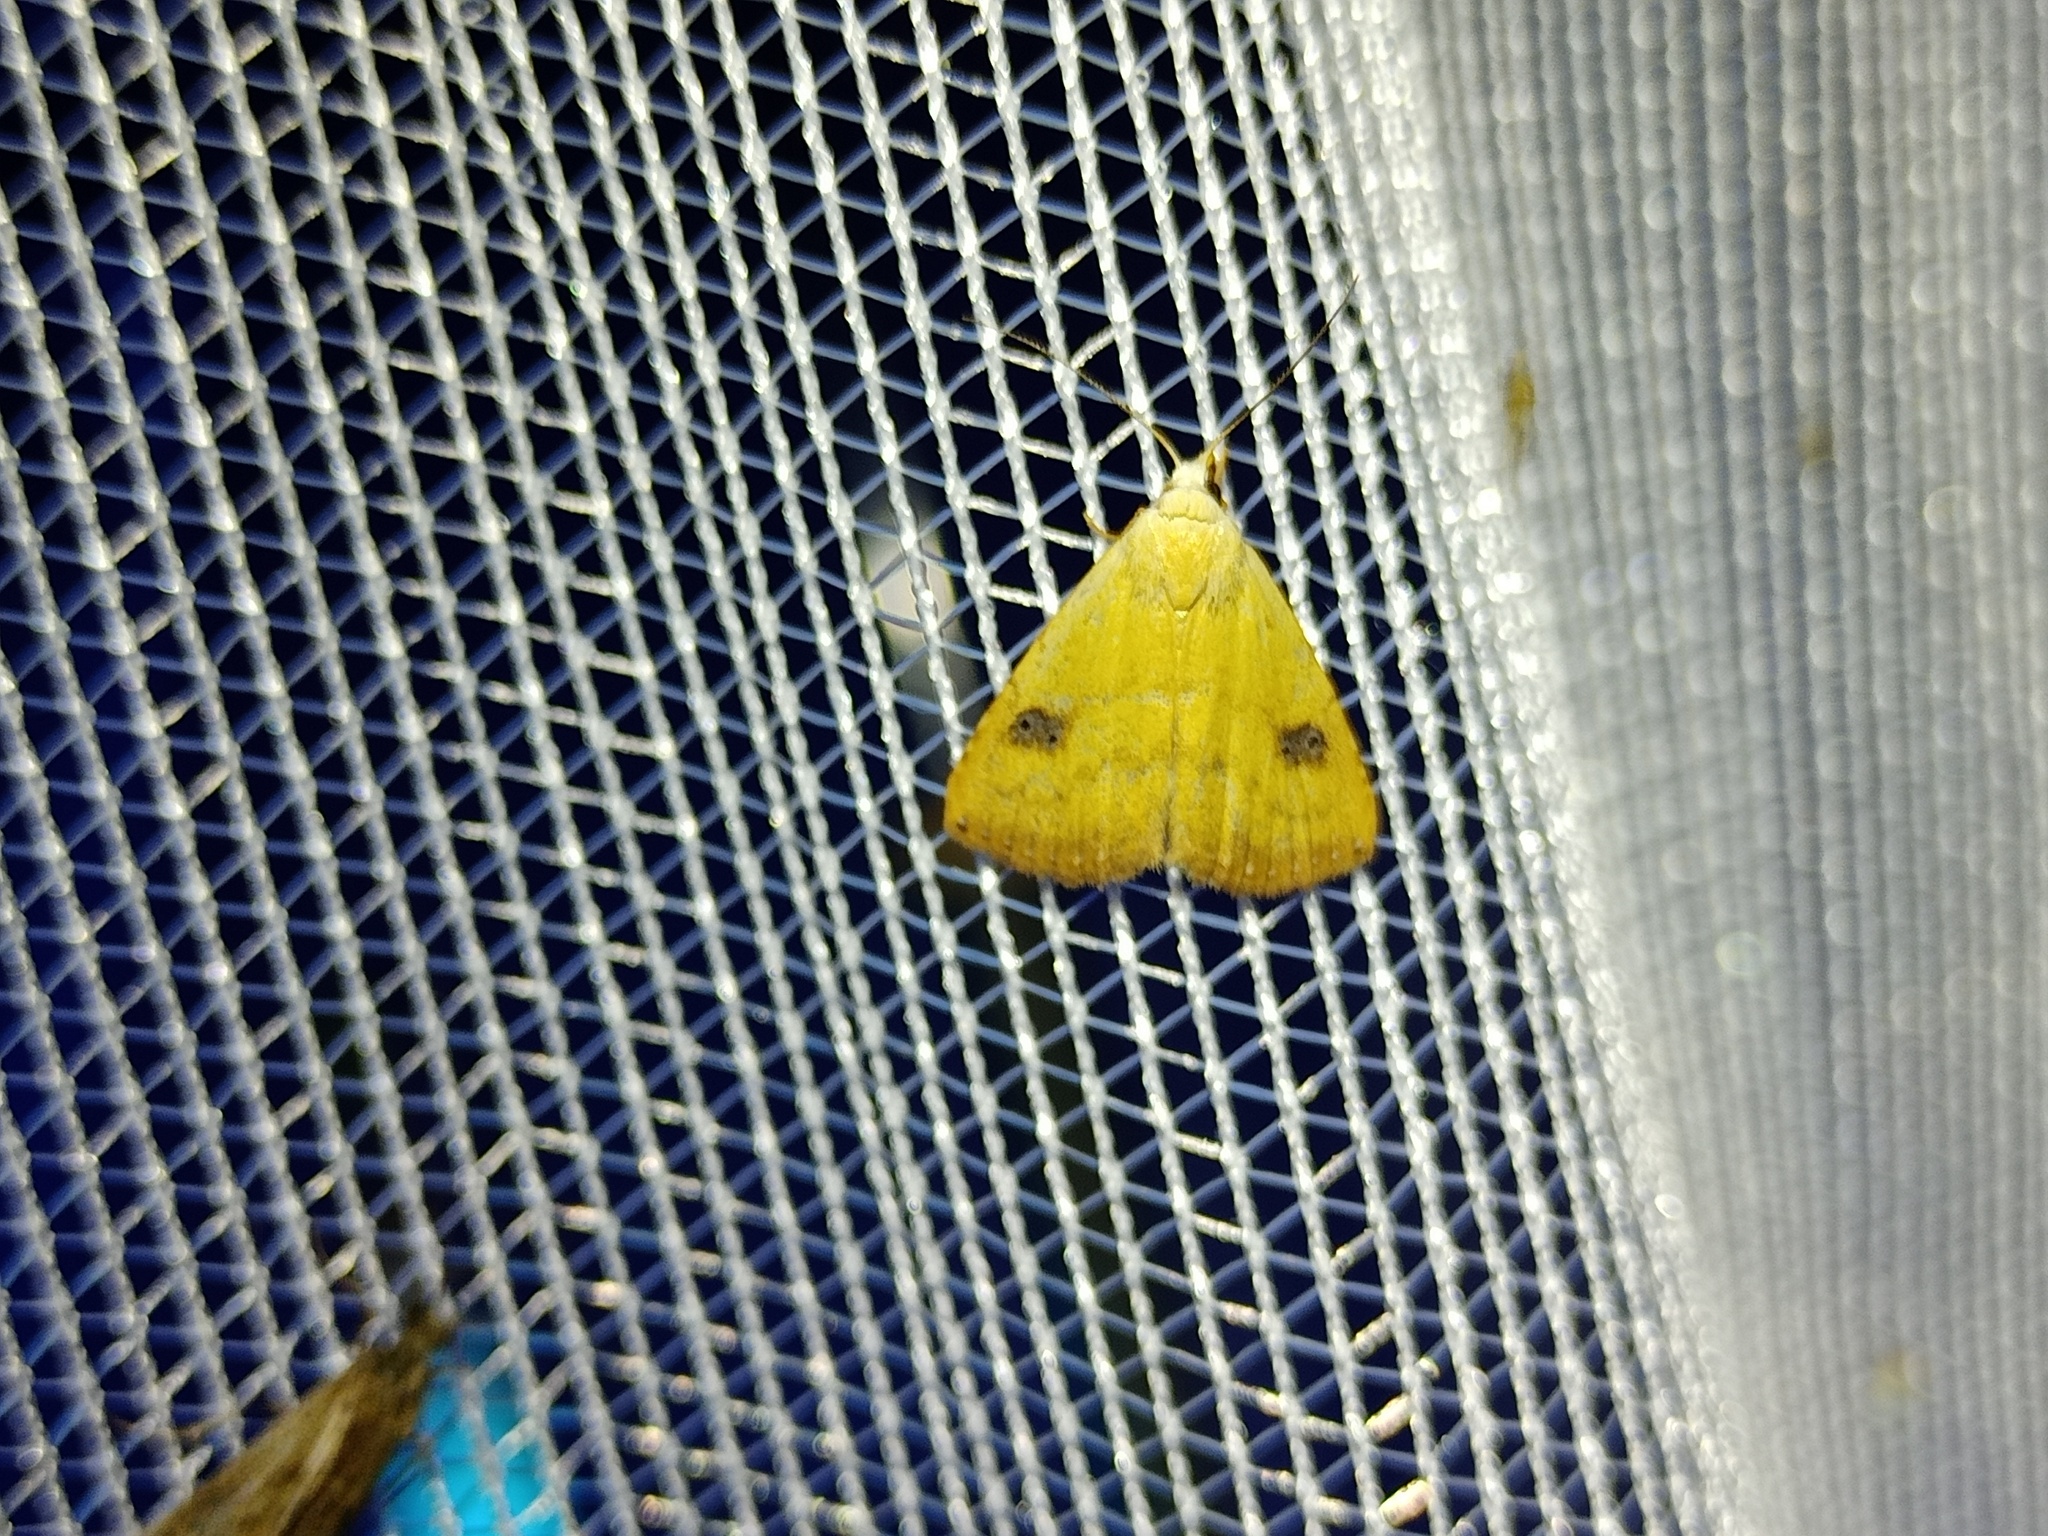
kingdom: Animalia
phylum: Arthropoda
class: Insecta
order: Lepidoptera
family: Erebidae
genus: Rivula
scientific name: Rivula sericealis
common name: Straw dot
